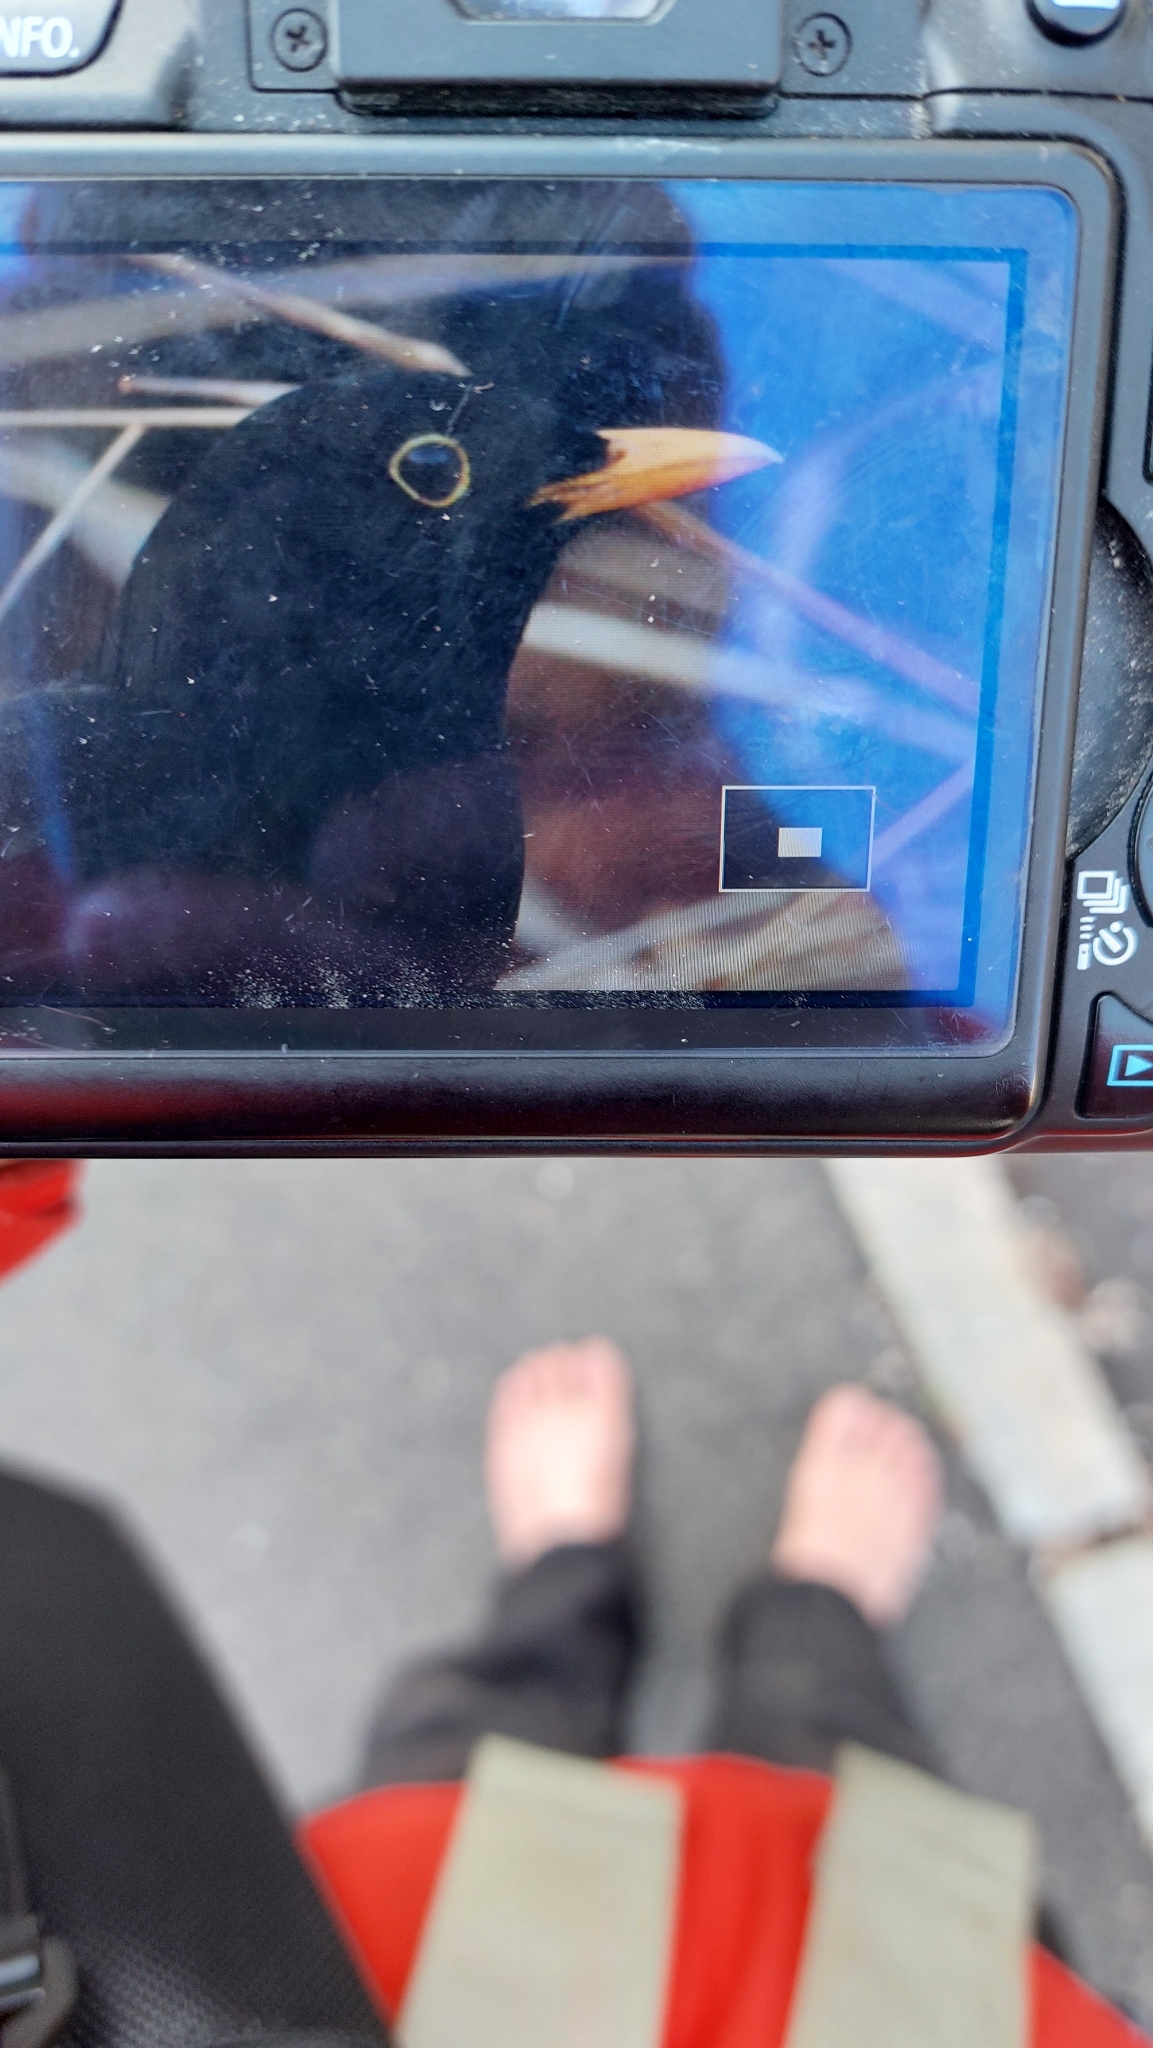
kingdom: Animalia
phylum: Chordata
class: Aves
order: Passeriformes
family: Turdidae
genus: Turdus
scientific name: Turdus merula
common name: Common blackbird
